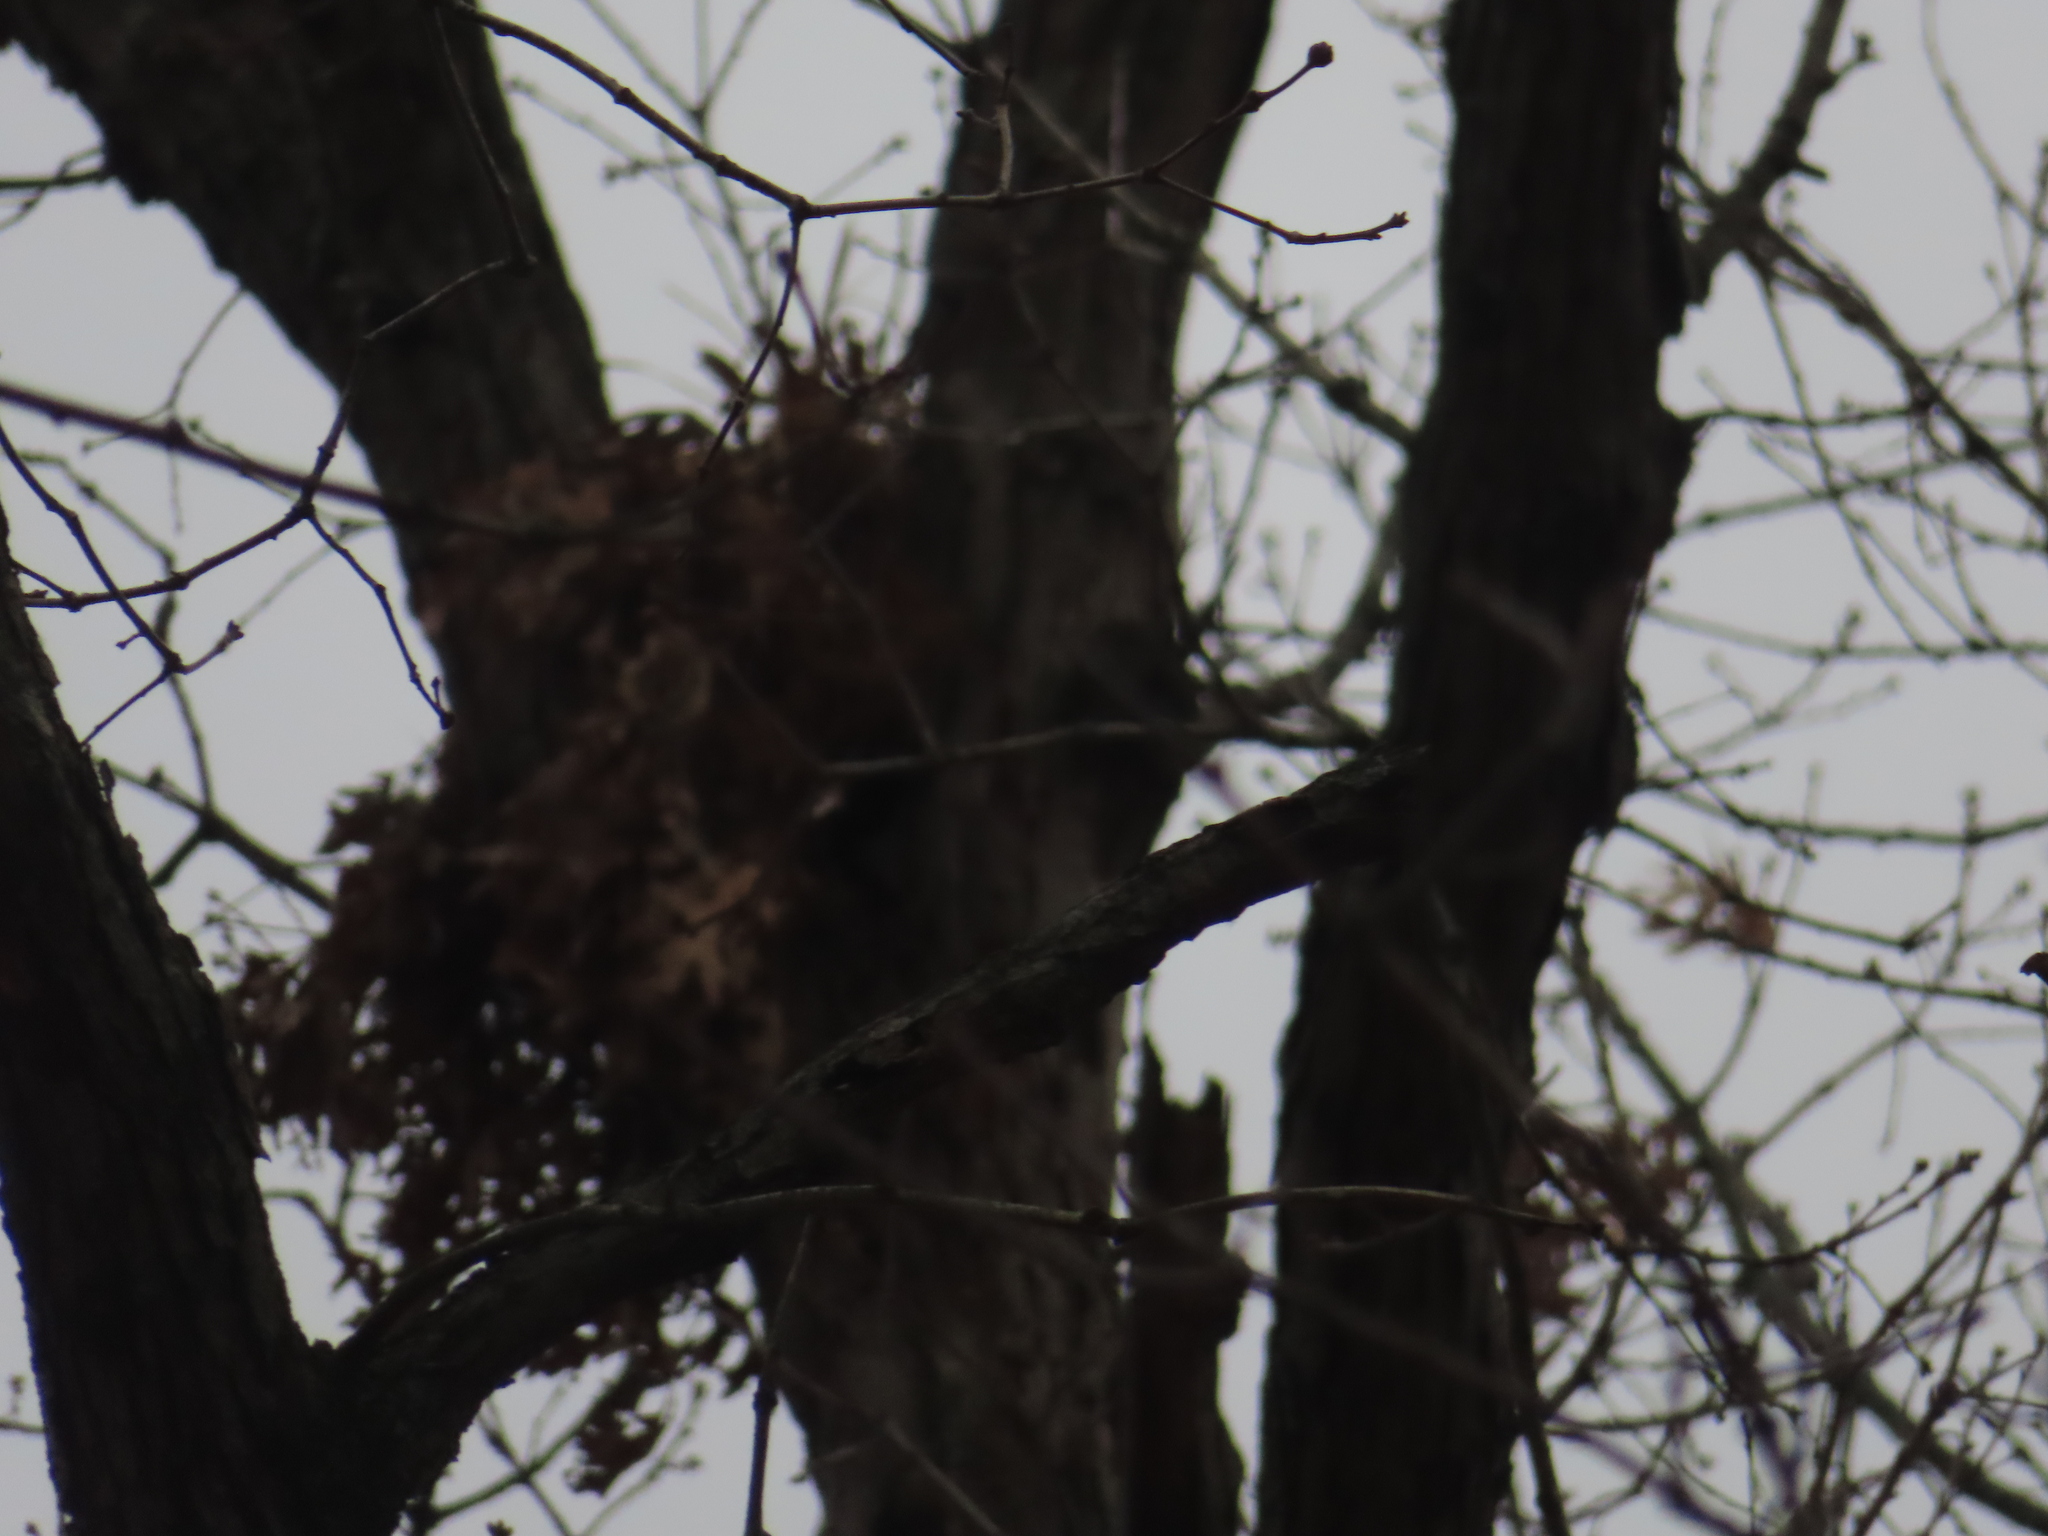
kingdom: Animalia
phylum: Chordata
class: Mammalia
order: Rodentia
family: Sciuridae
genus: Sciurus
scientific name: Sciurus carolinensis
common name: Eastern gray squirrel
